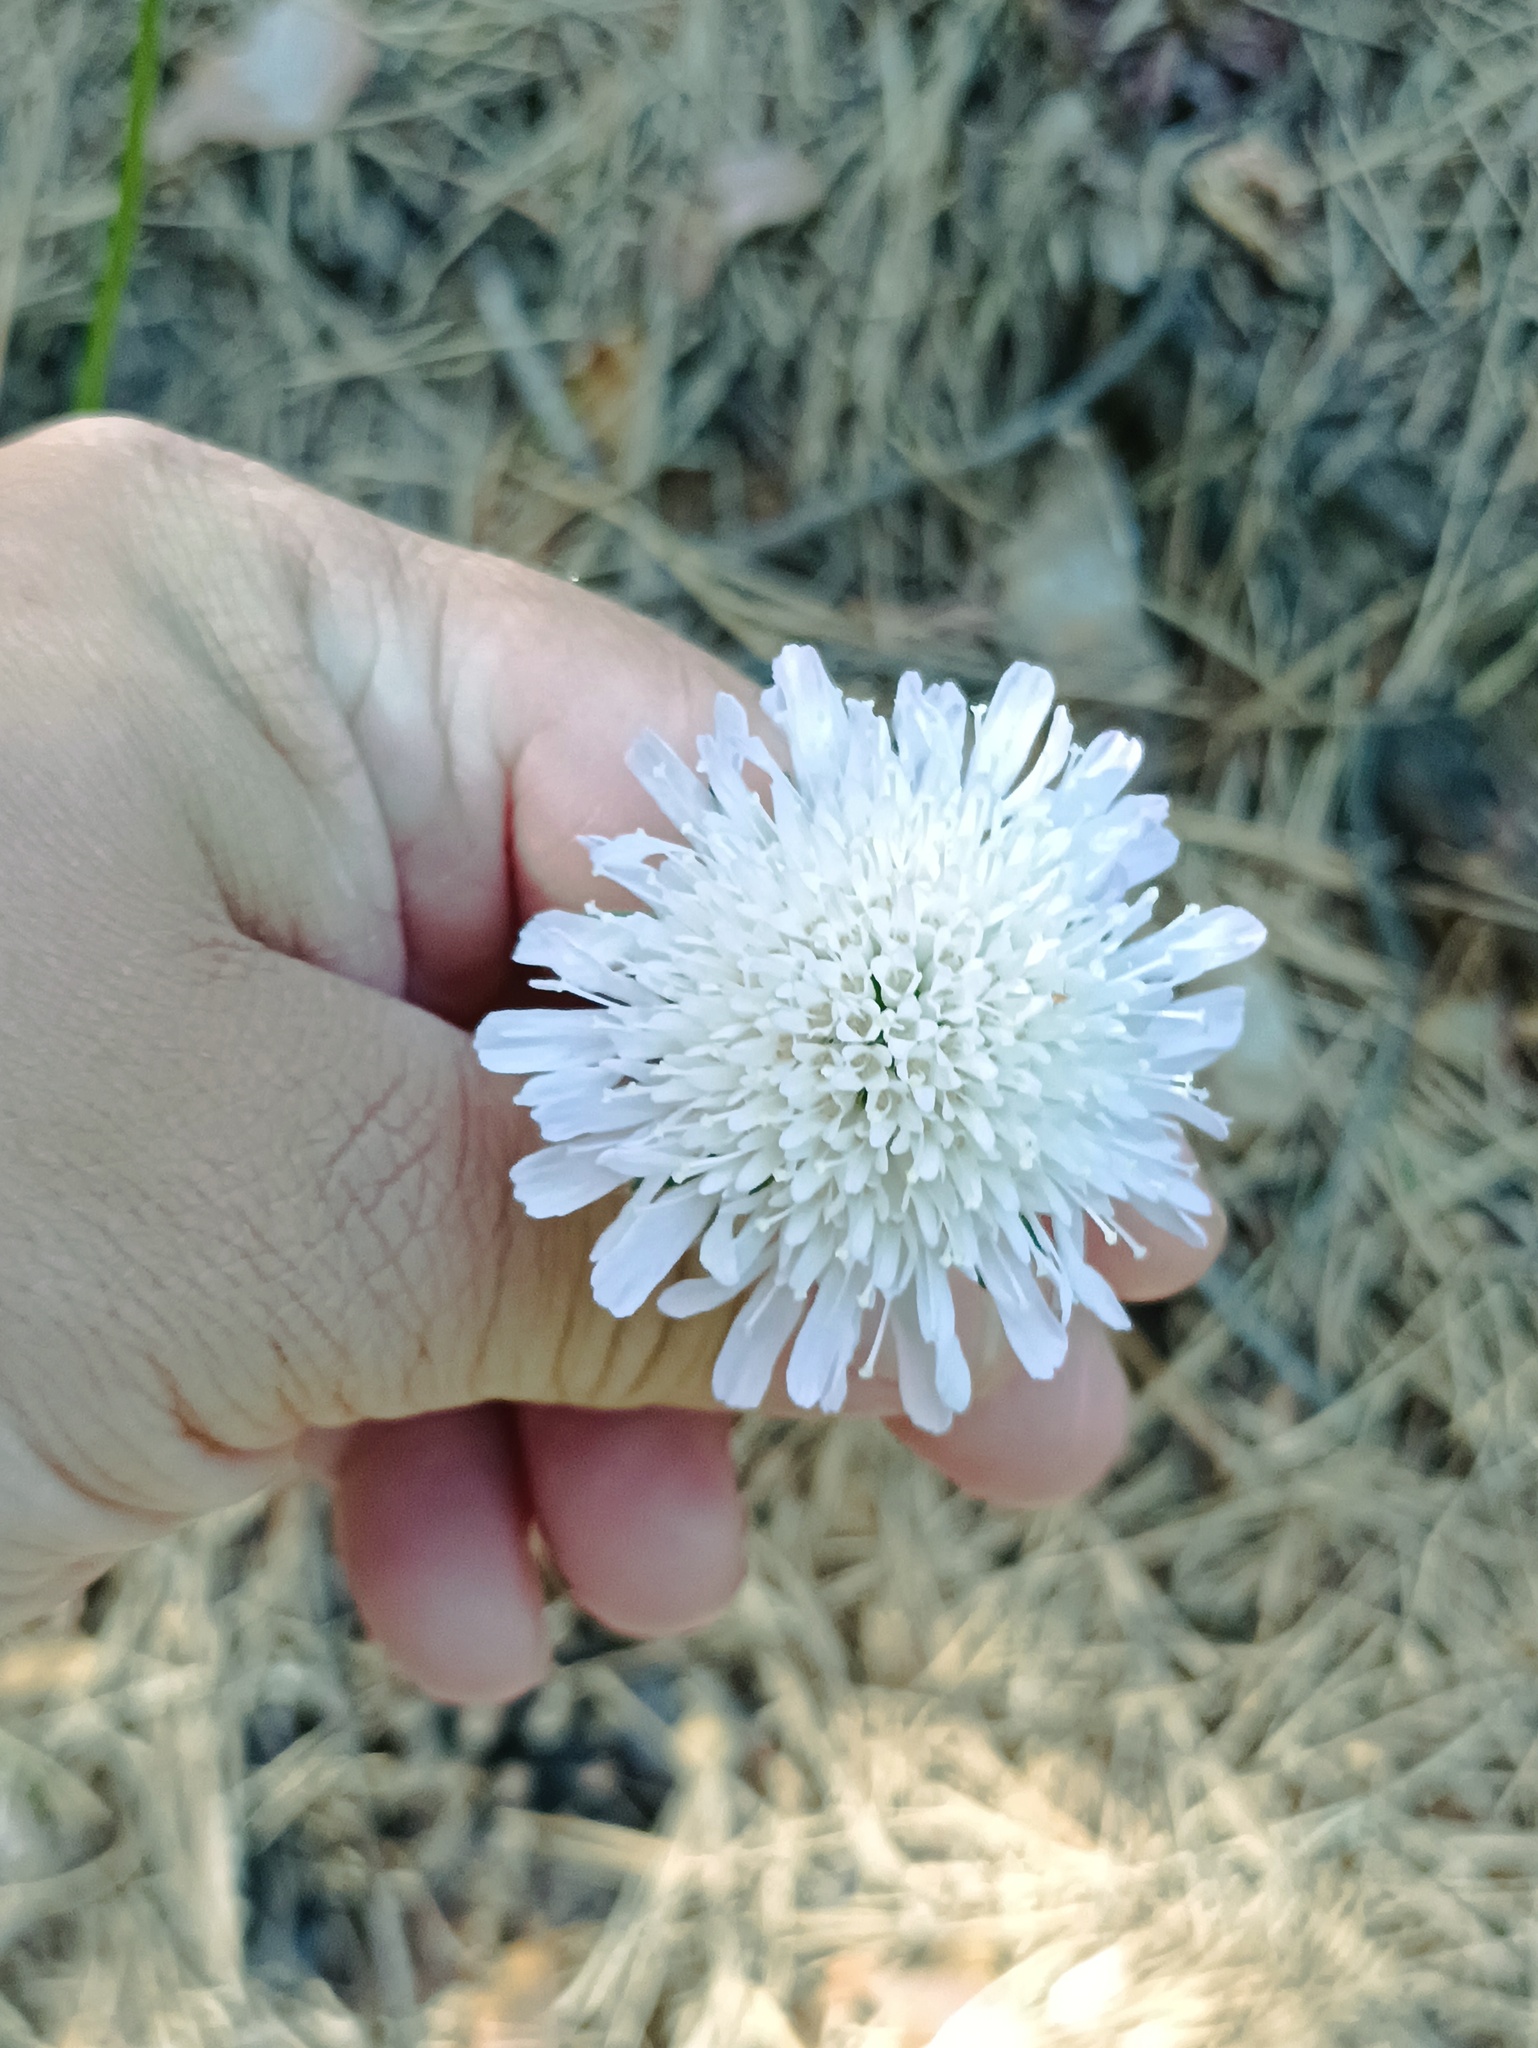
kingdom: Plantae
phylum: Tracheophyta
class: Magnoliopsida
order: Dipsacales
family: Caprifoliaceae
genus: Knautia
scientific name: Knautia arvensis
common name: Field scabiosa
